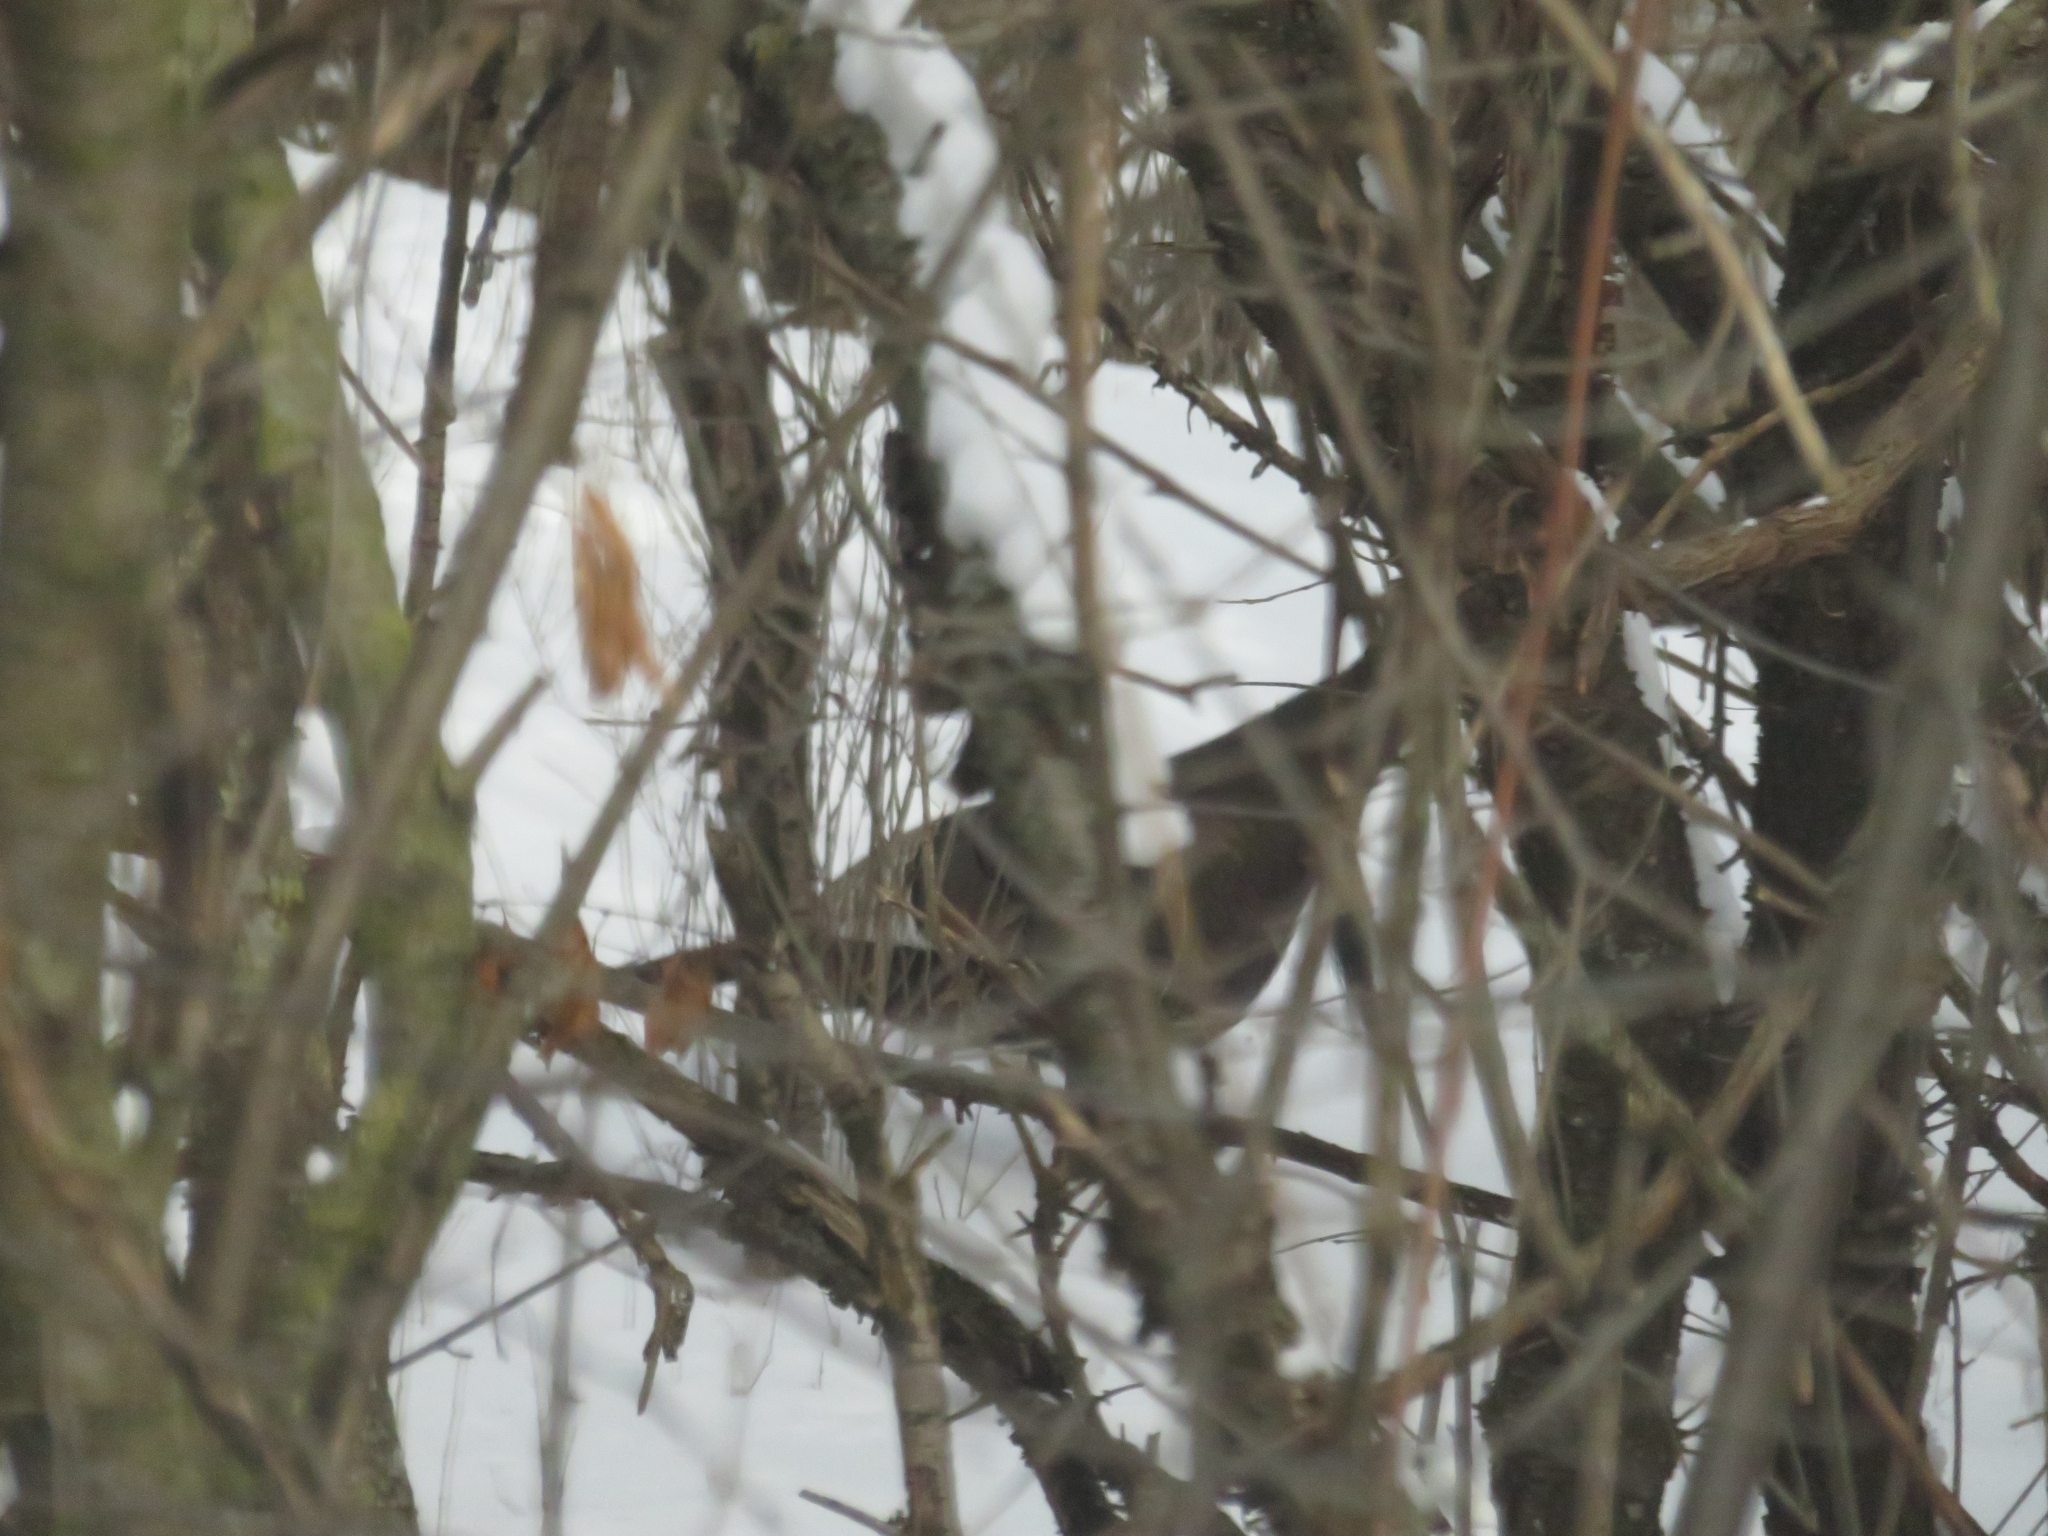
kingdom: Animalia
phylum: Chordata
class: Aves
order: Galliformes
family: Phasianidae
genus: Meleagris
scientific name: Meleagris gallopavo
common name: Wild turkey
